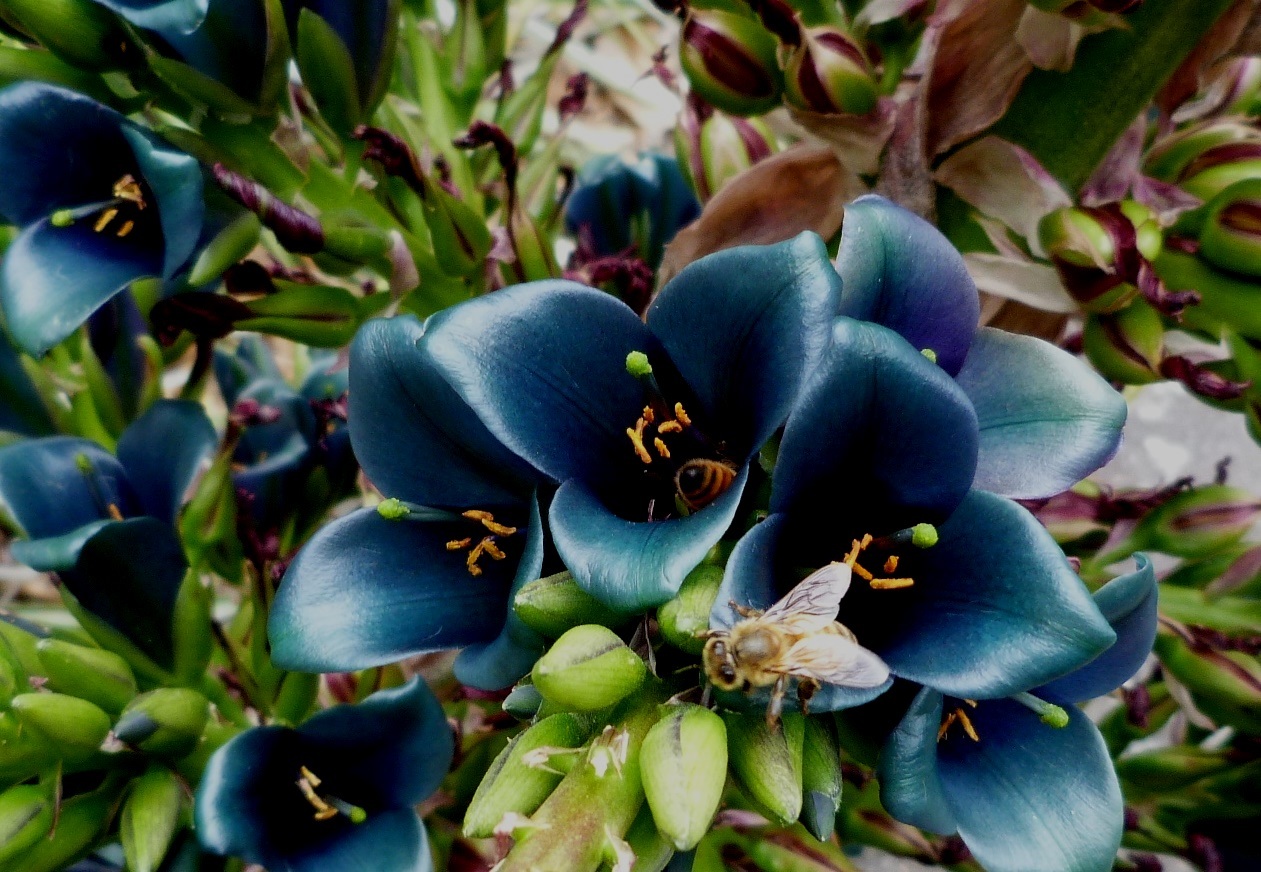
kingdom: Animalia
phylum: Arthropoda
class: Insecta
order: Hymenoptera
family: Apidae
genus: Apis
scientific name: Apis mellifera
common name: Honey bee
